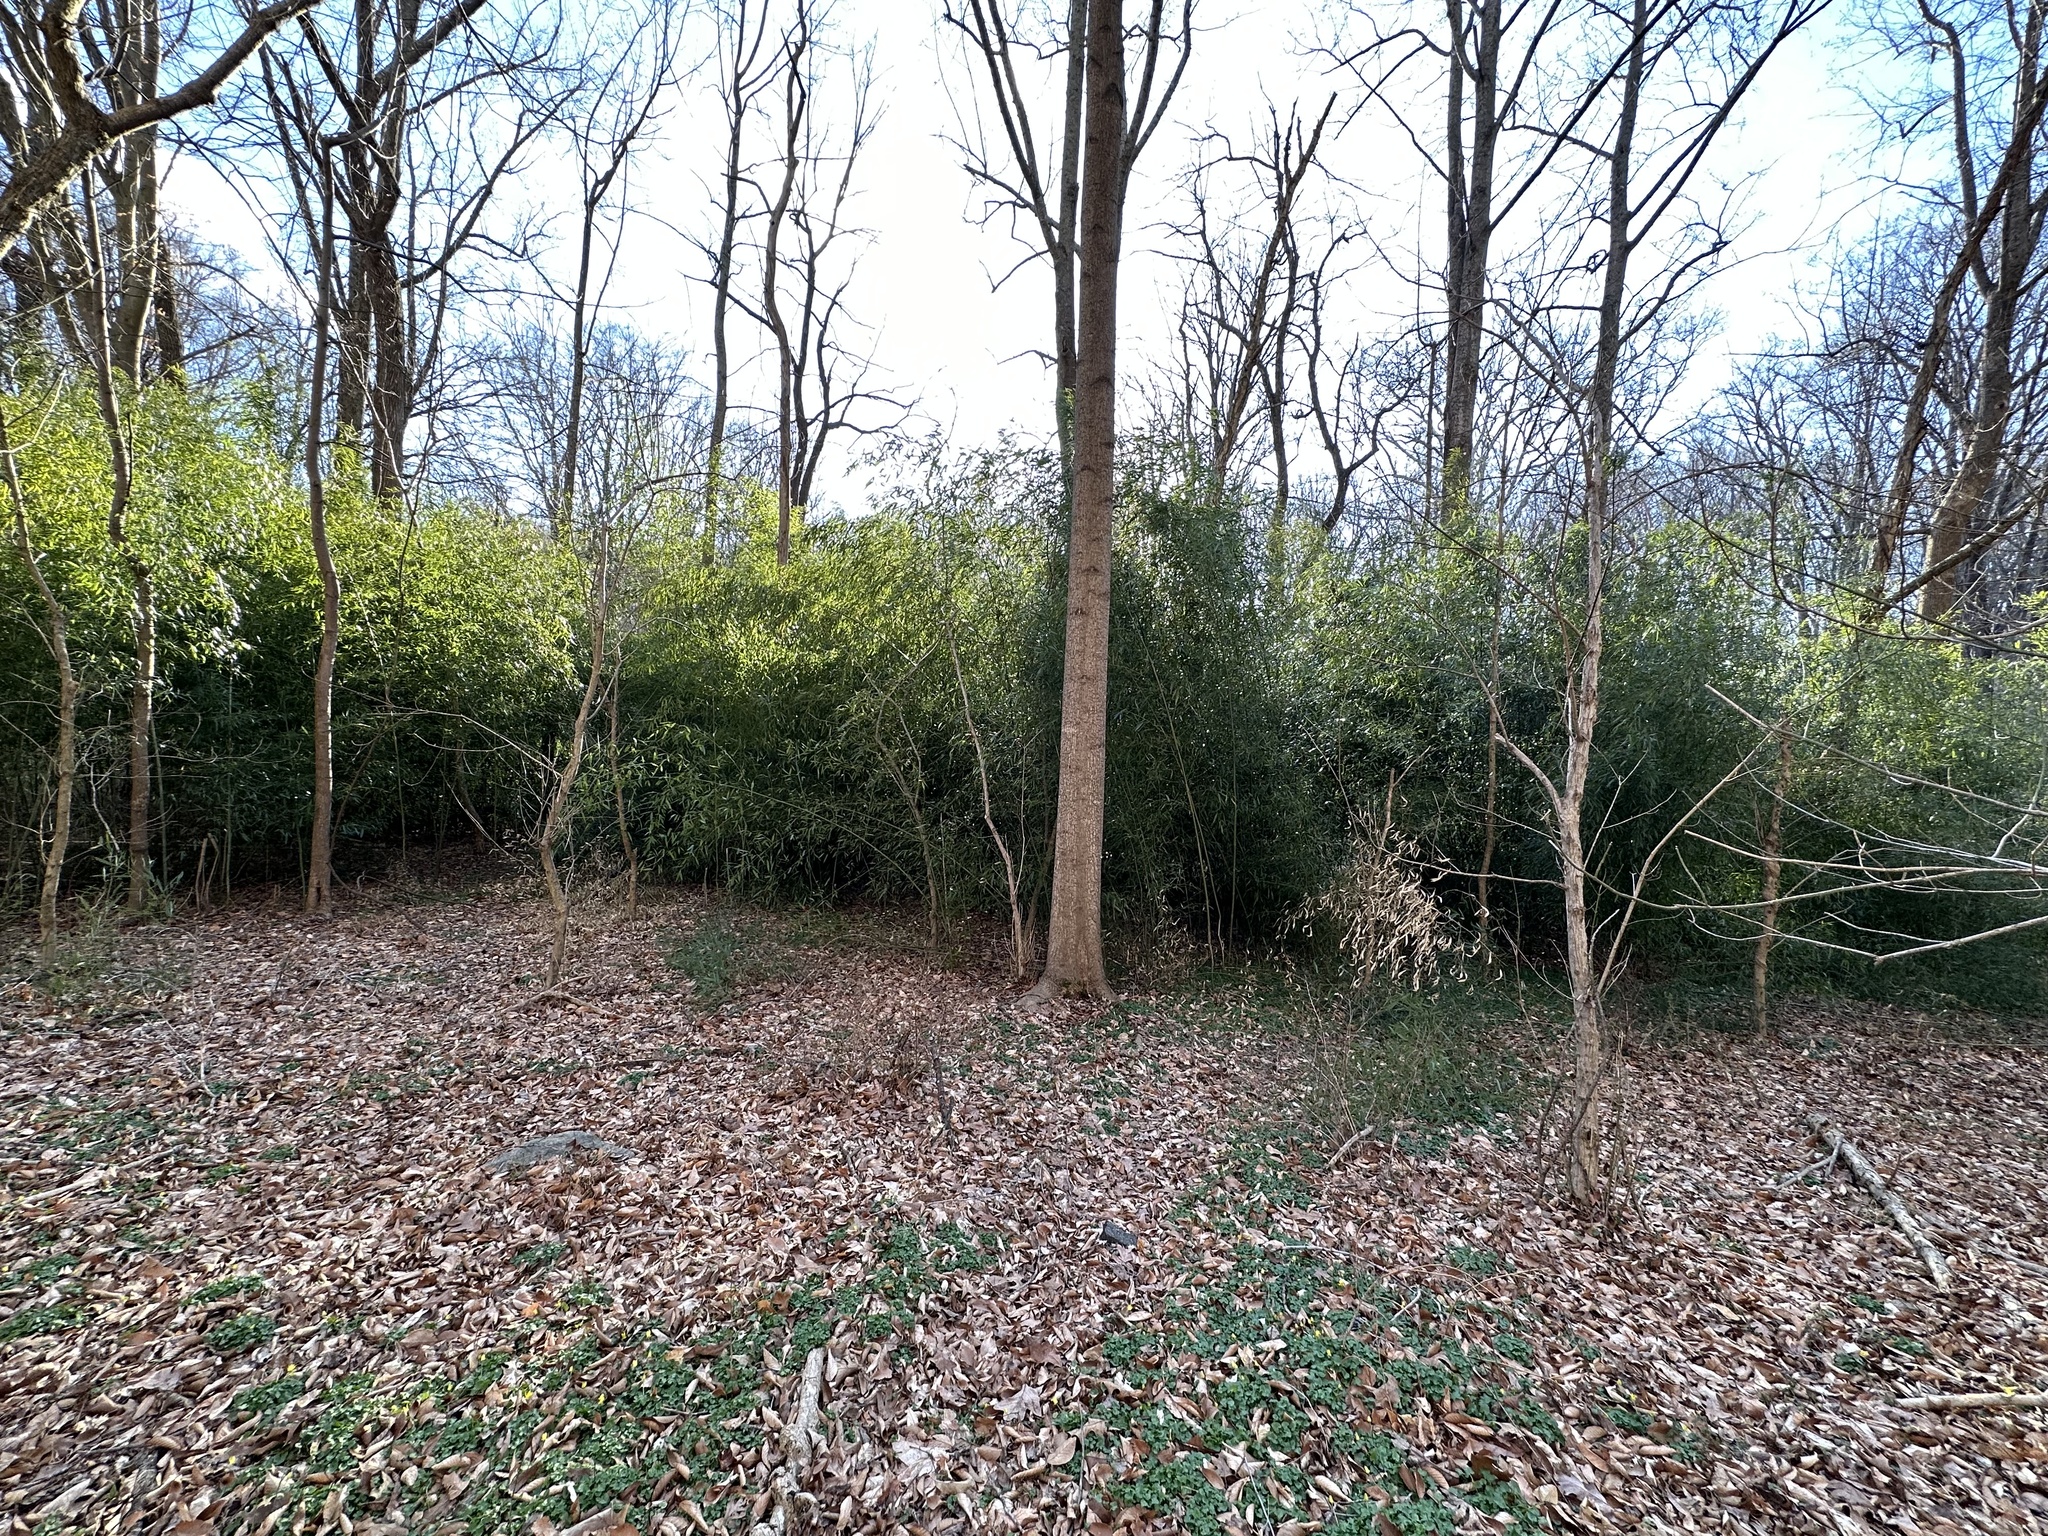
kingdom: Plantae
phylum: Tracheophyta
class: Liliopsida
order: Poales
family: Poaceae
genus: Phyllostachys
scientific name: Phyllostachys aureosulcata
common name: Yellow groove bamboo
